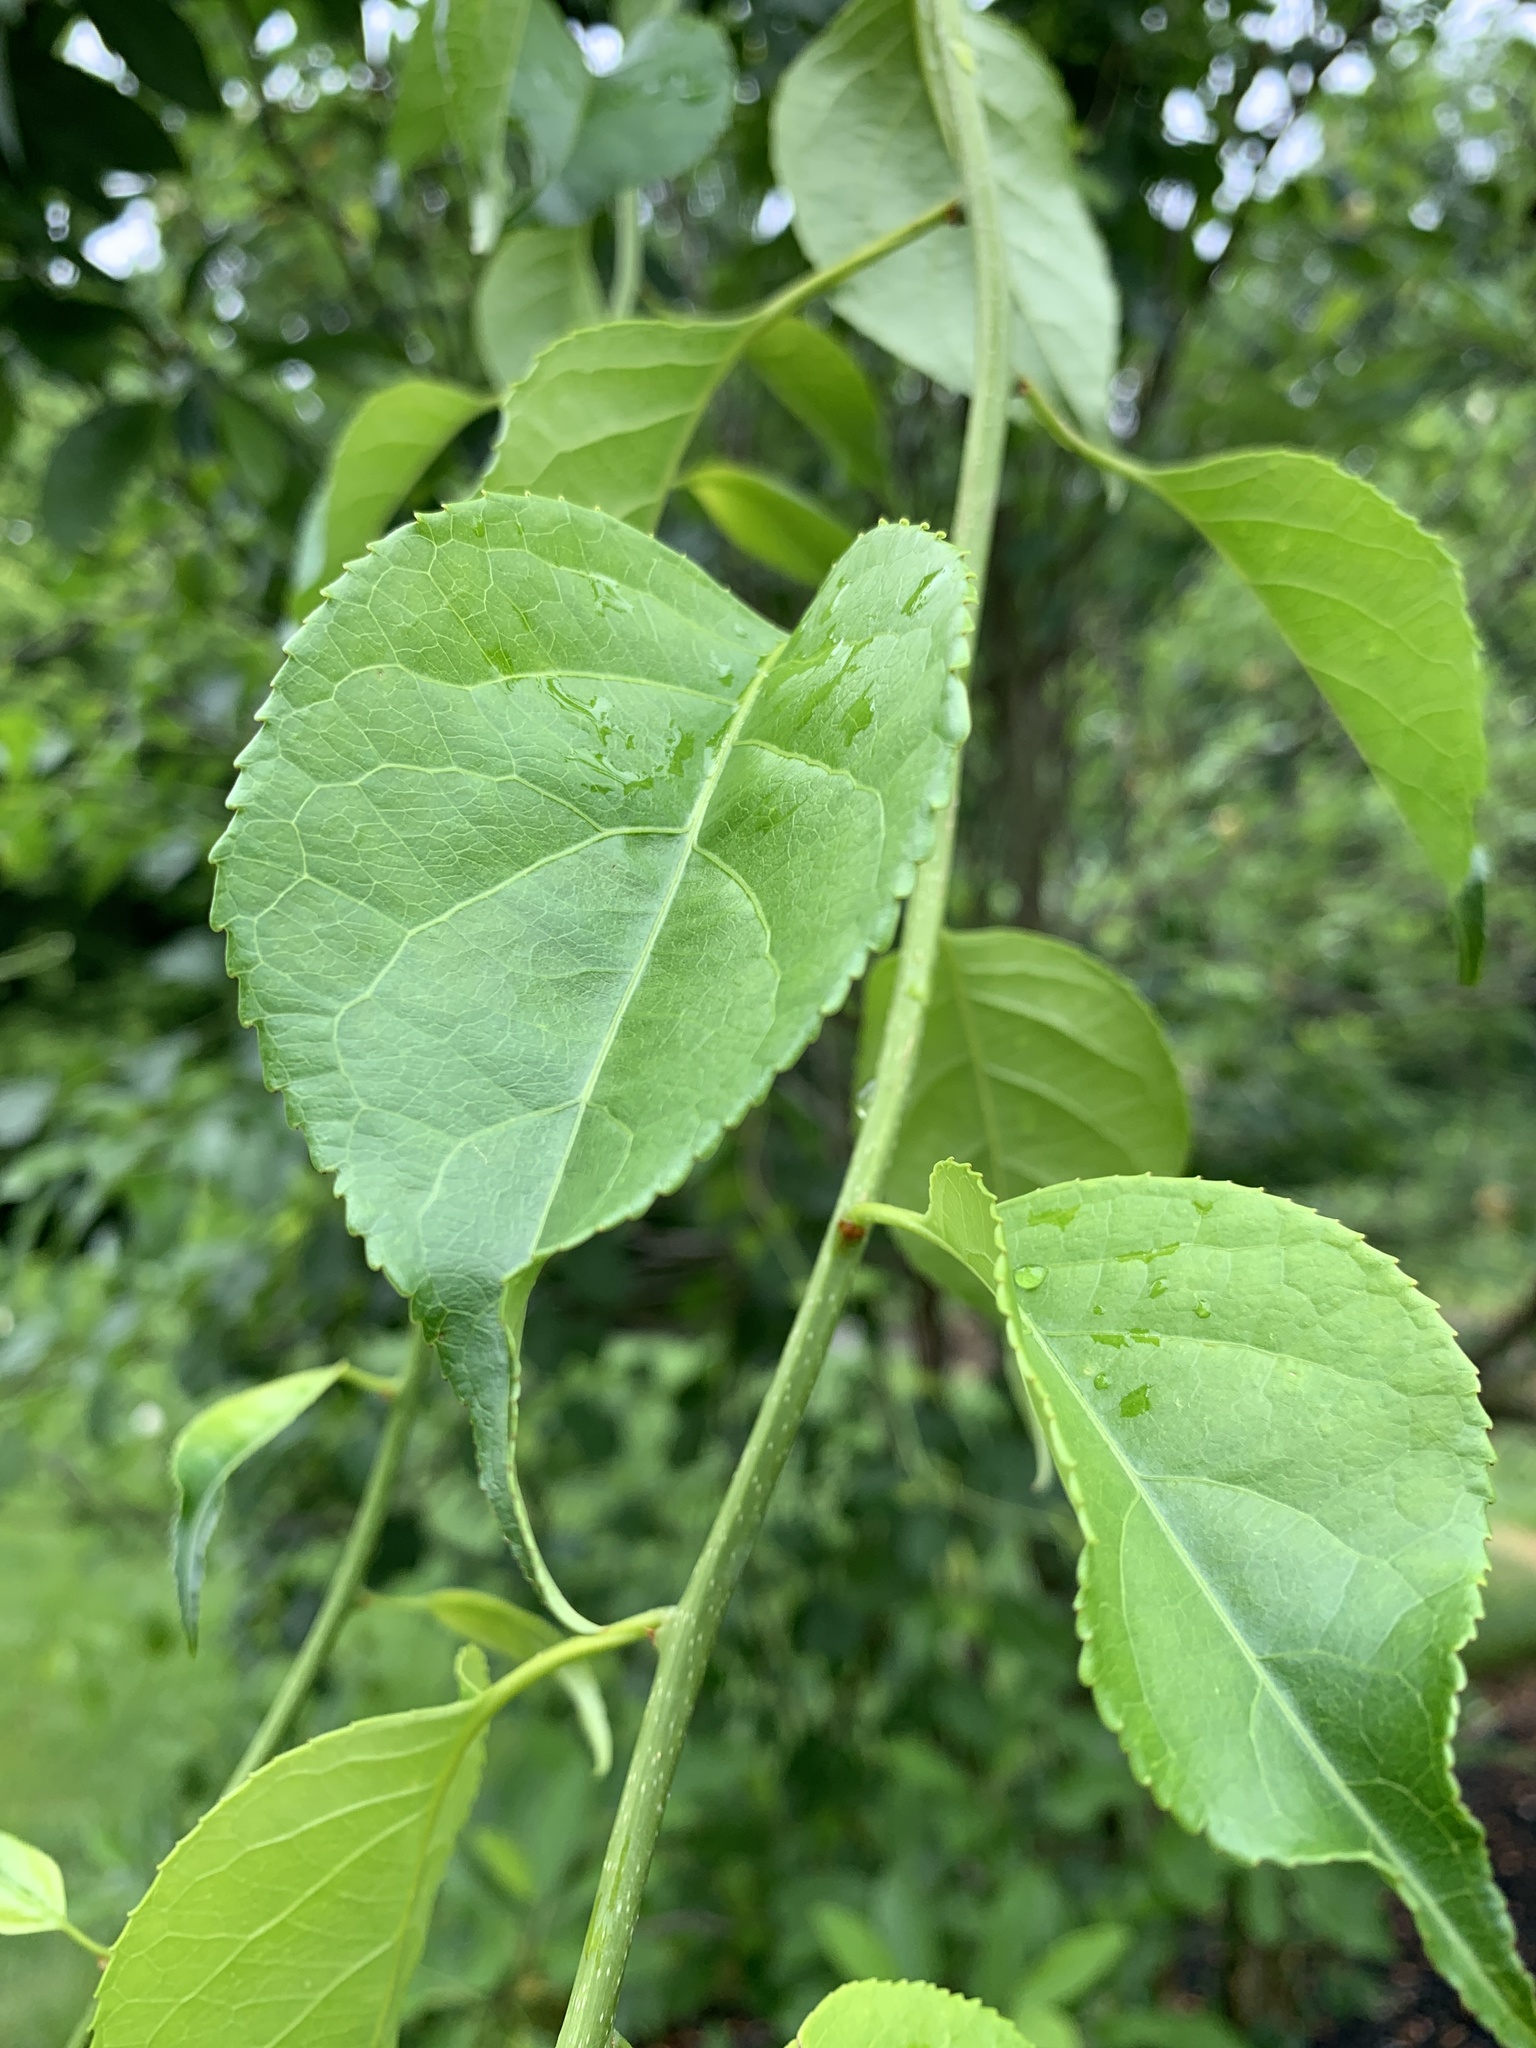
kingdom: Plantae
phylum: Tracheophyta
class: Magnoliopsida
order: Celastrales
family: Celastraceae
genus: Celastrus
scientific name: Celastrus orbiculatus
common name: Oriental bittersweet
